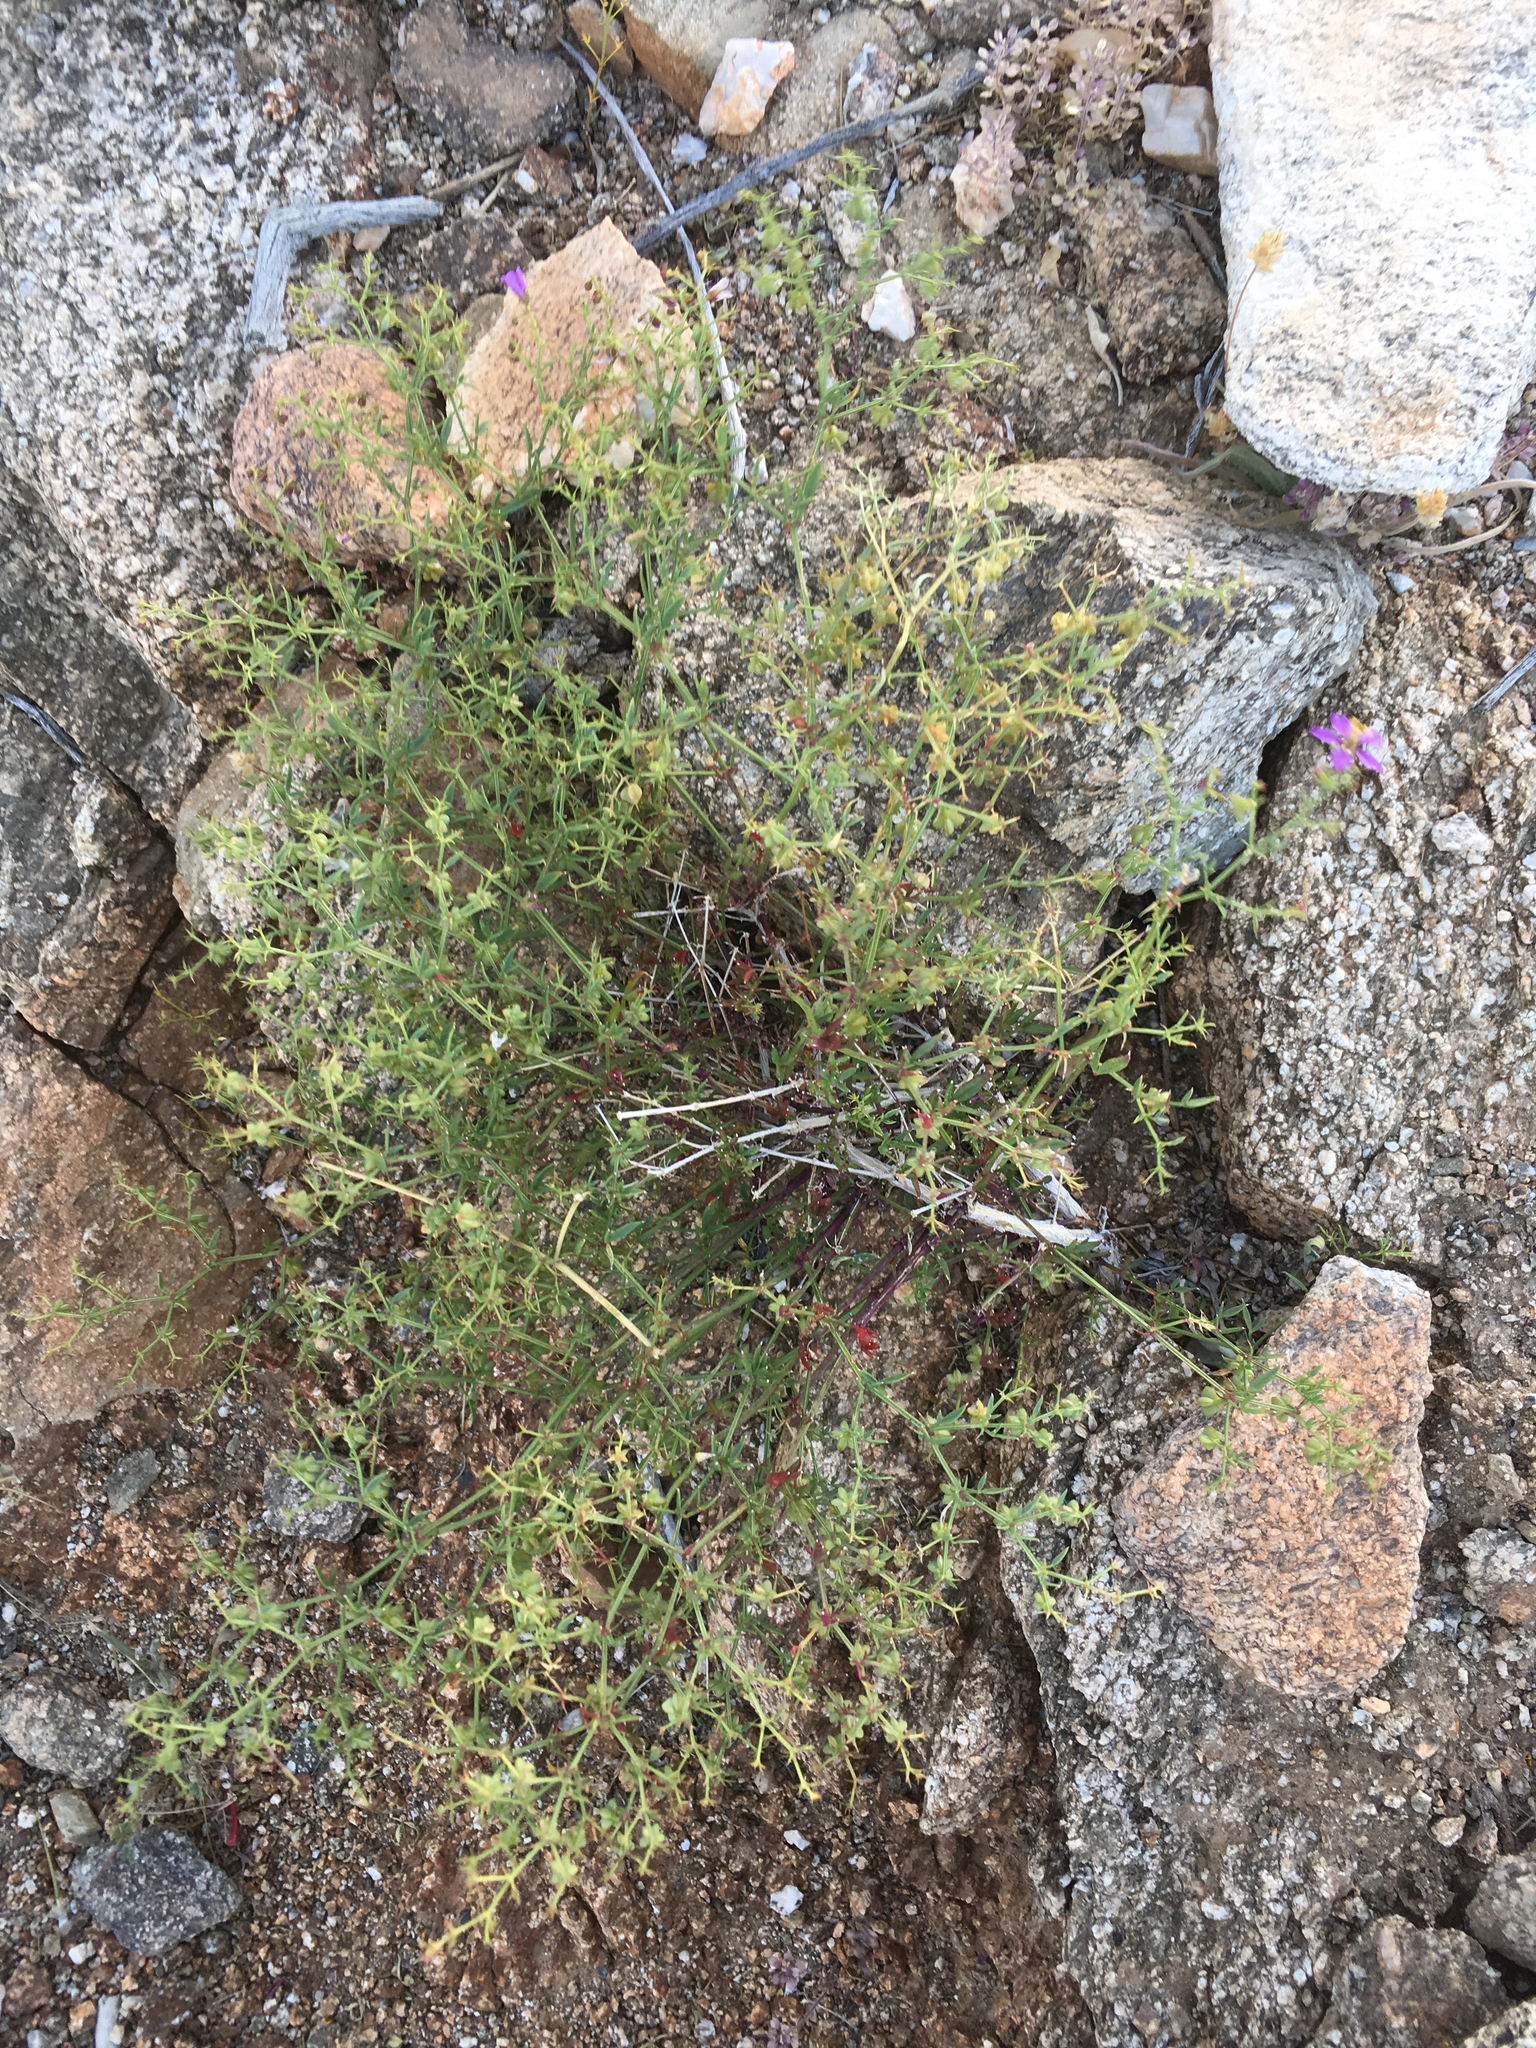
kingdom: Plantae
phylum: Tracheophyta
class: Magnoliopsida
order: Zygophyllales
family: Zygophyllaceae
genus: Fagonia
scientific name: Fagonia laevis
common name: California fagonbush
